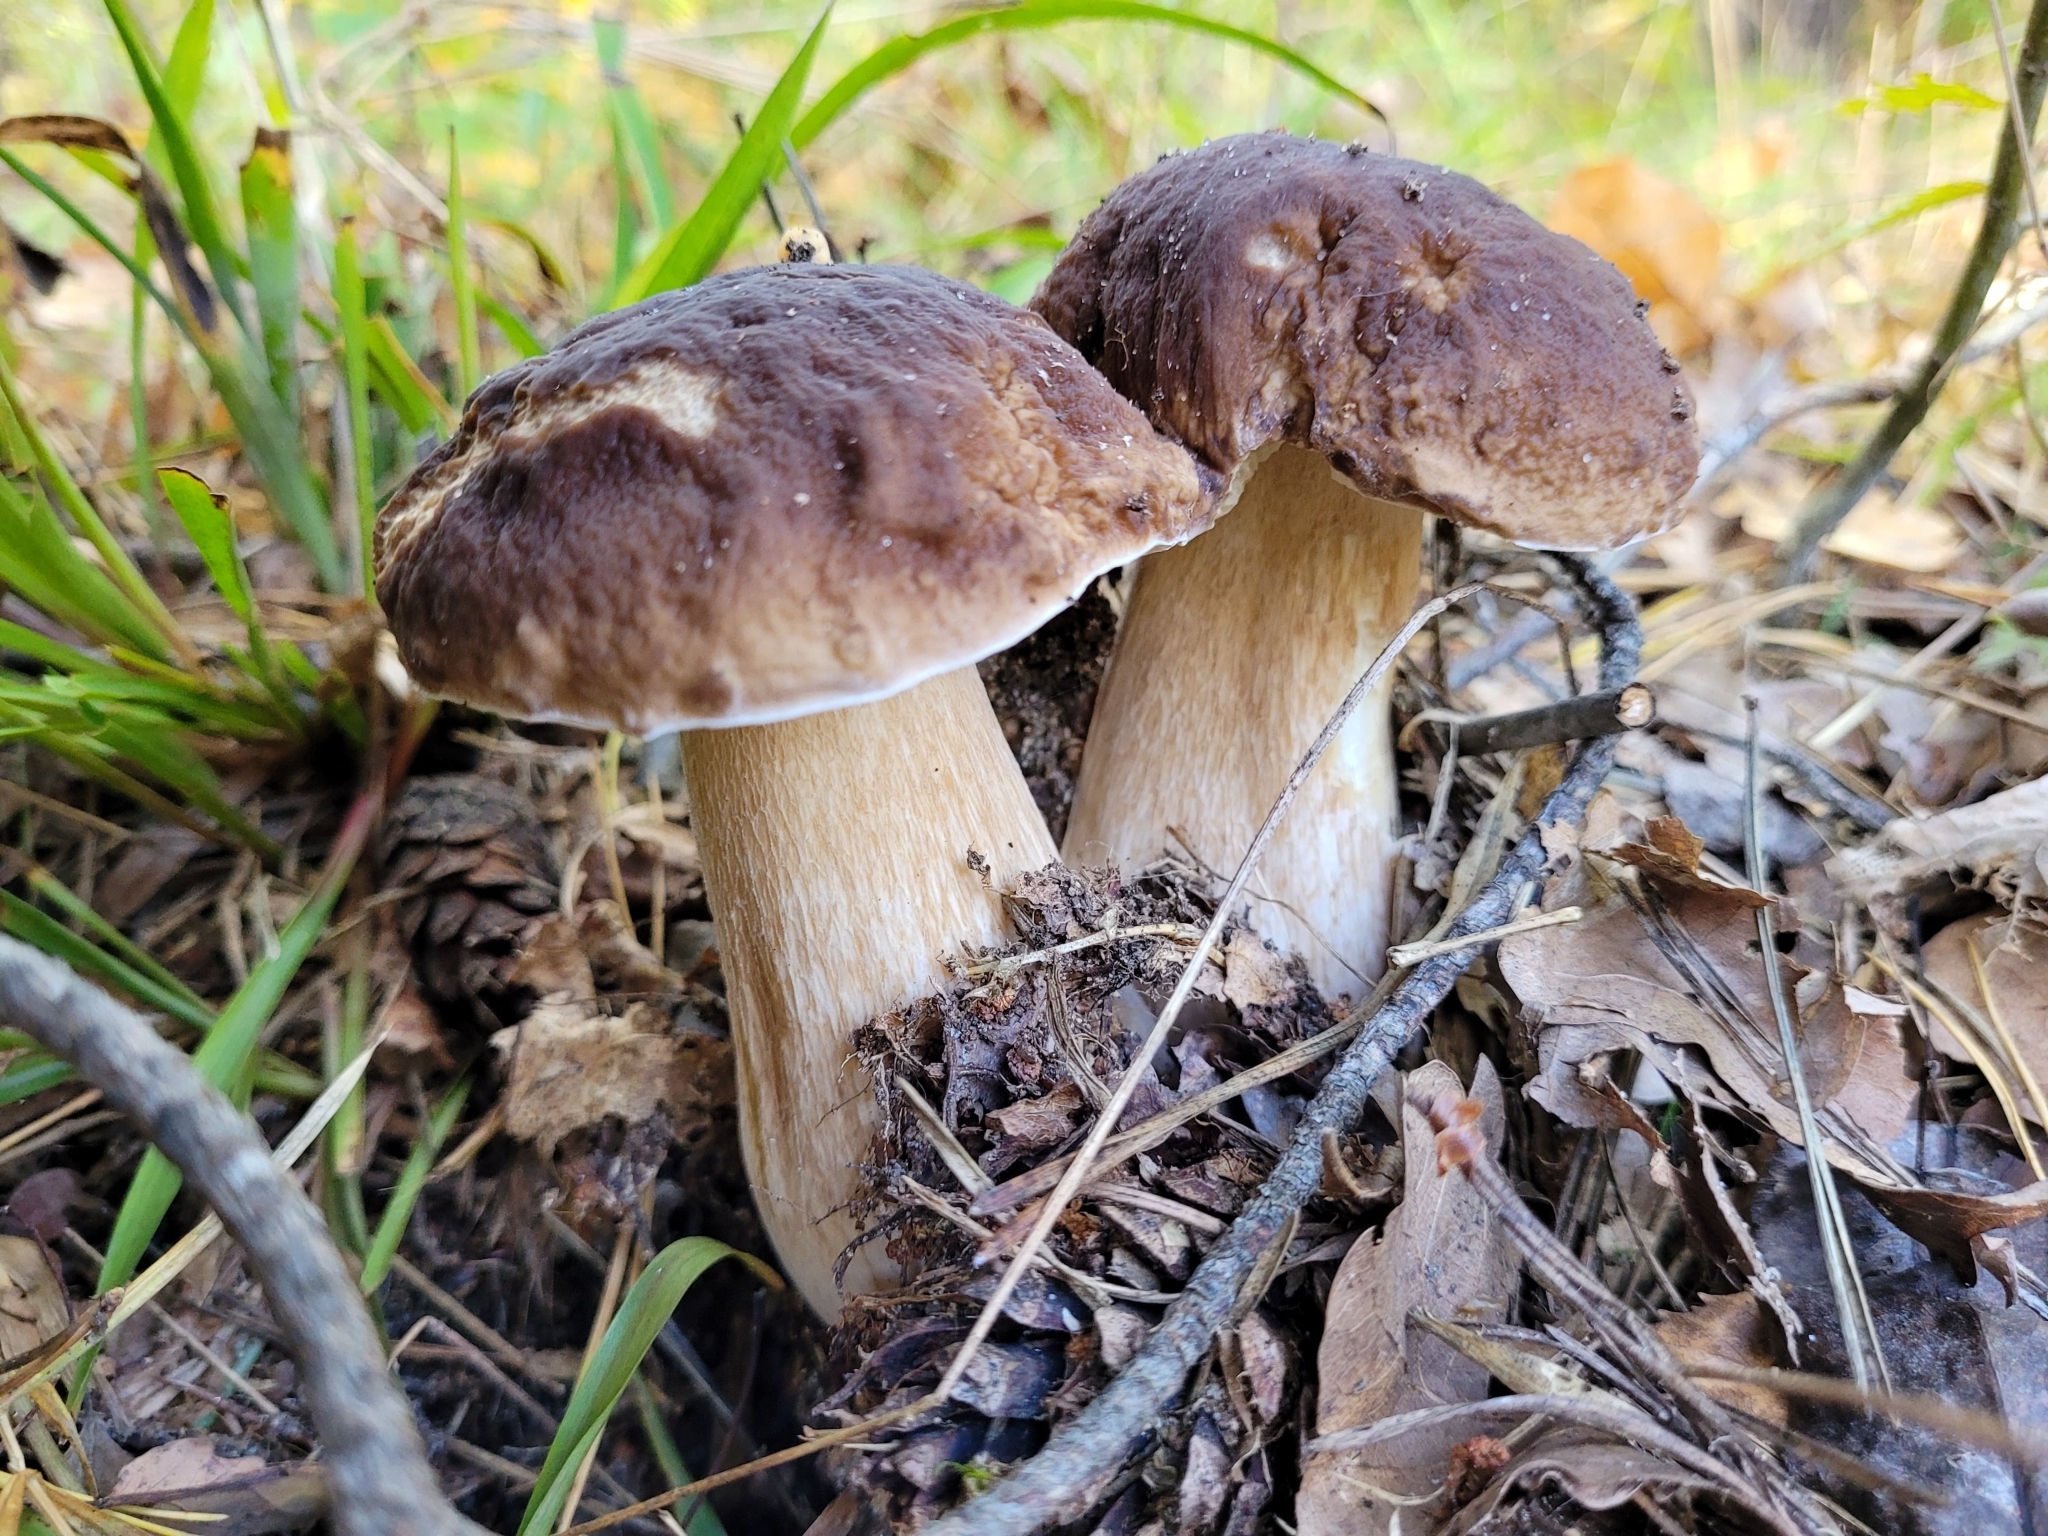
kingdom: Fungi
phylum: Basidiomycota
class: Agaricomycetes
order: Boletales
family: Boletaceae
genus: Boletus
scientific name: Boletus edulis
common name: Cep
